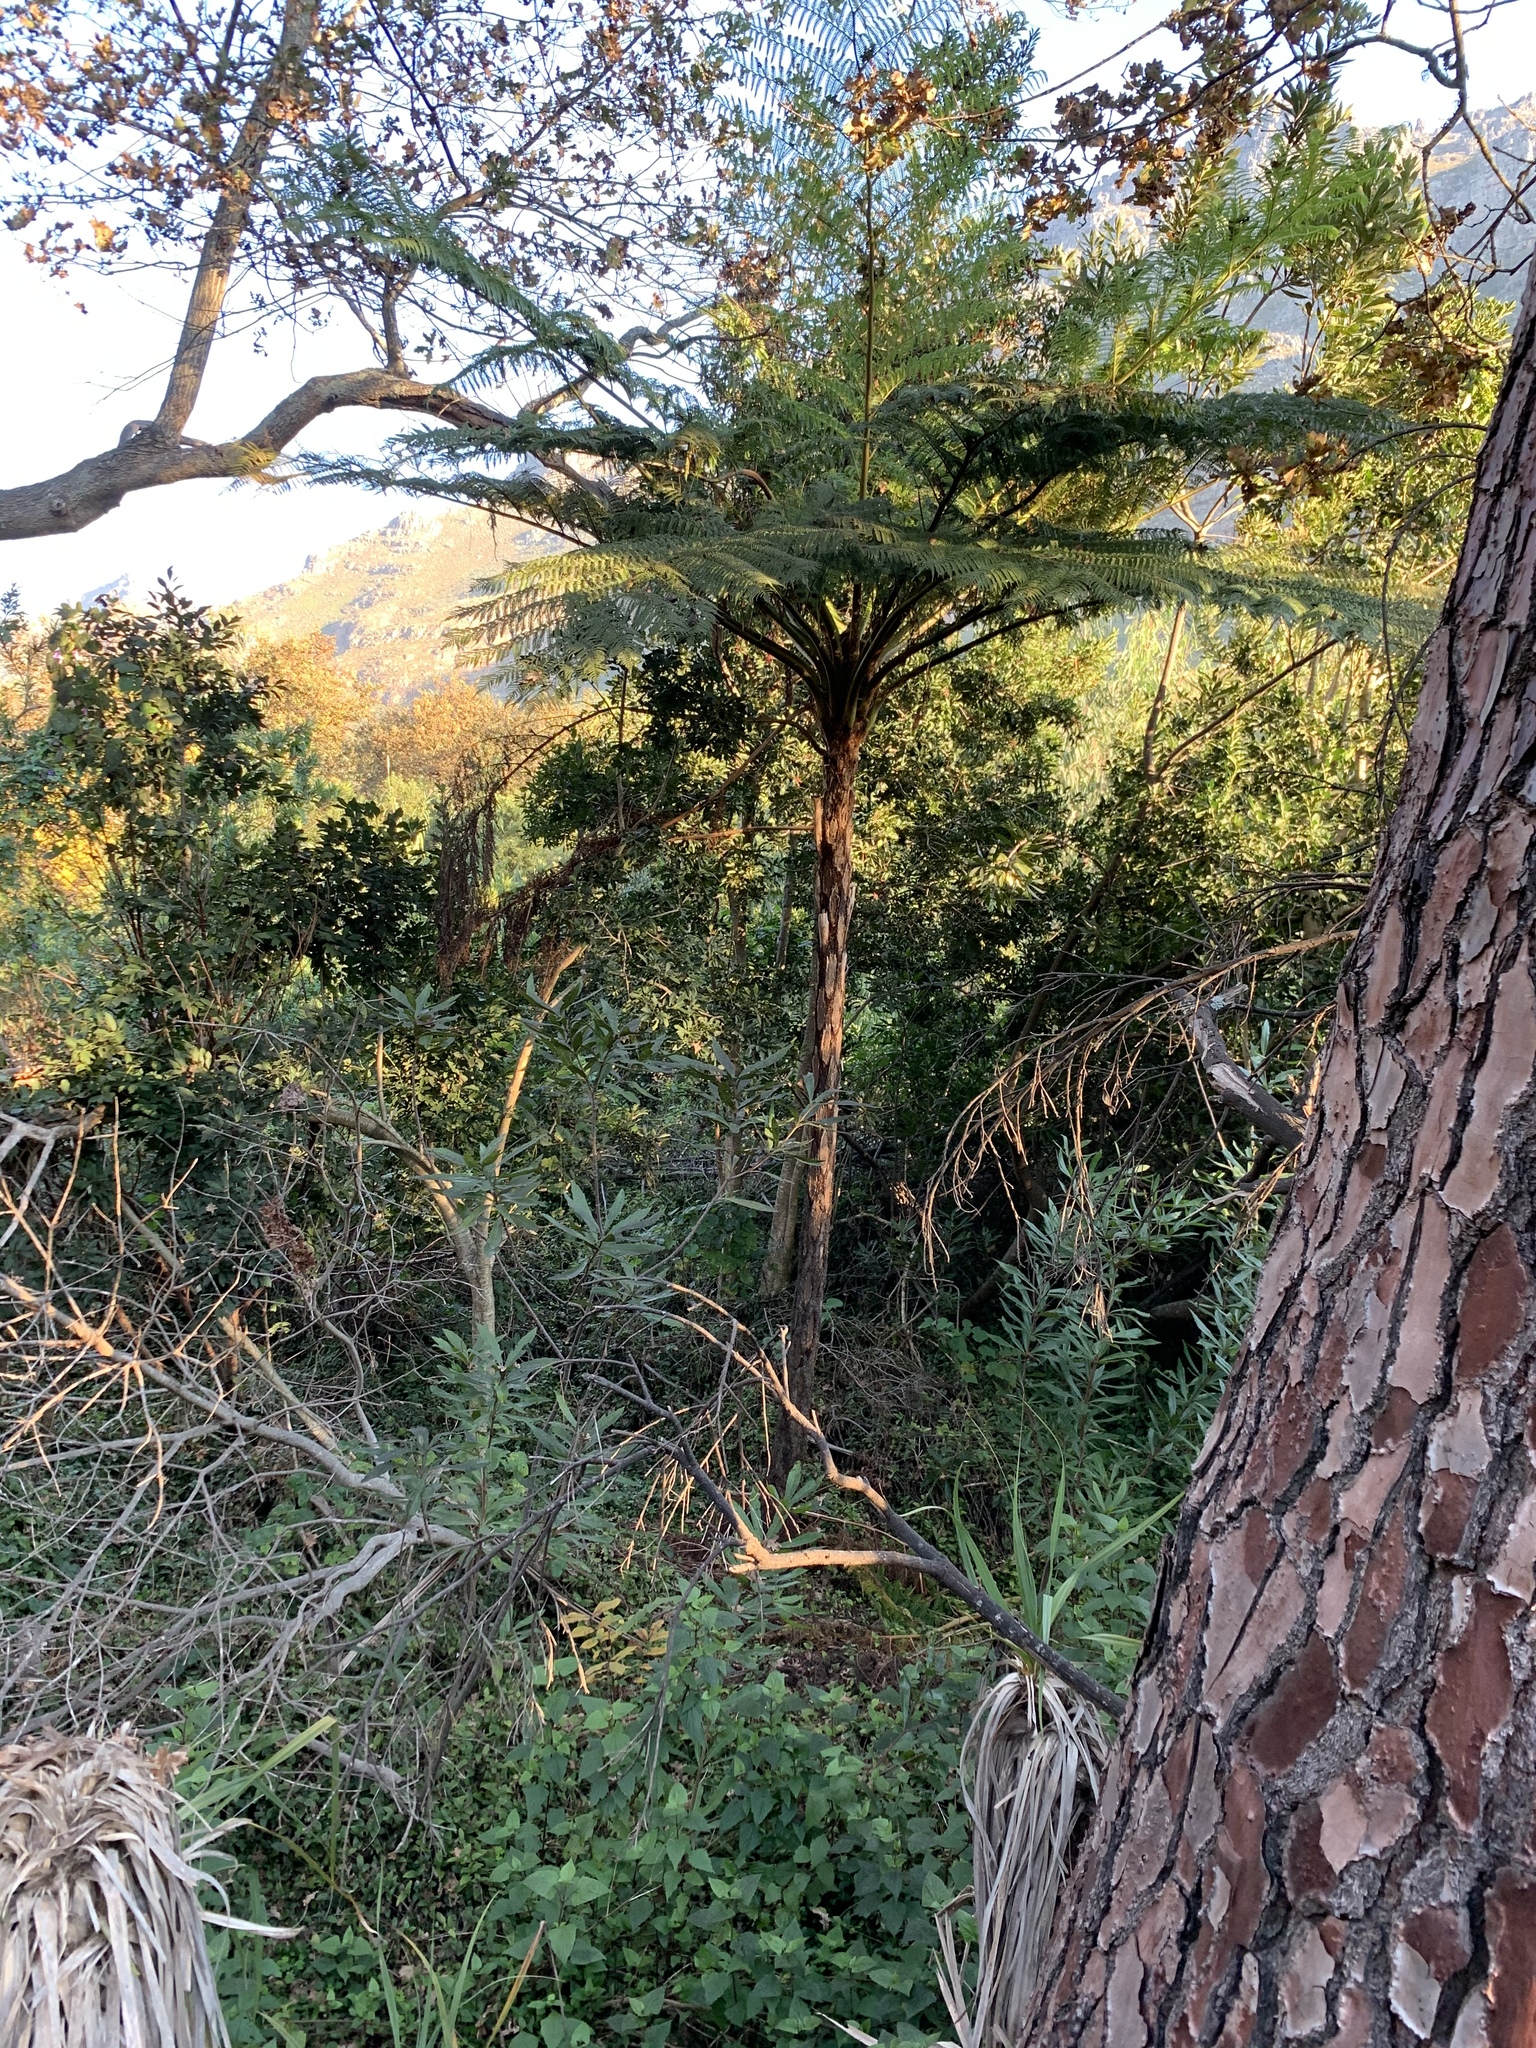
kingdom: Plantae
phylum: Tracheophyta
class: Polypodiopsida
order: Cyatheales
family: Cyatheaceae
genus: Sphaeropteris
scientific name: Sphaeropteris cooperi
